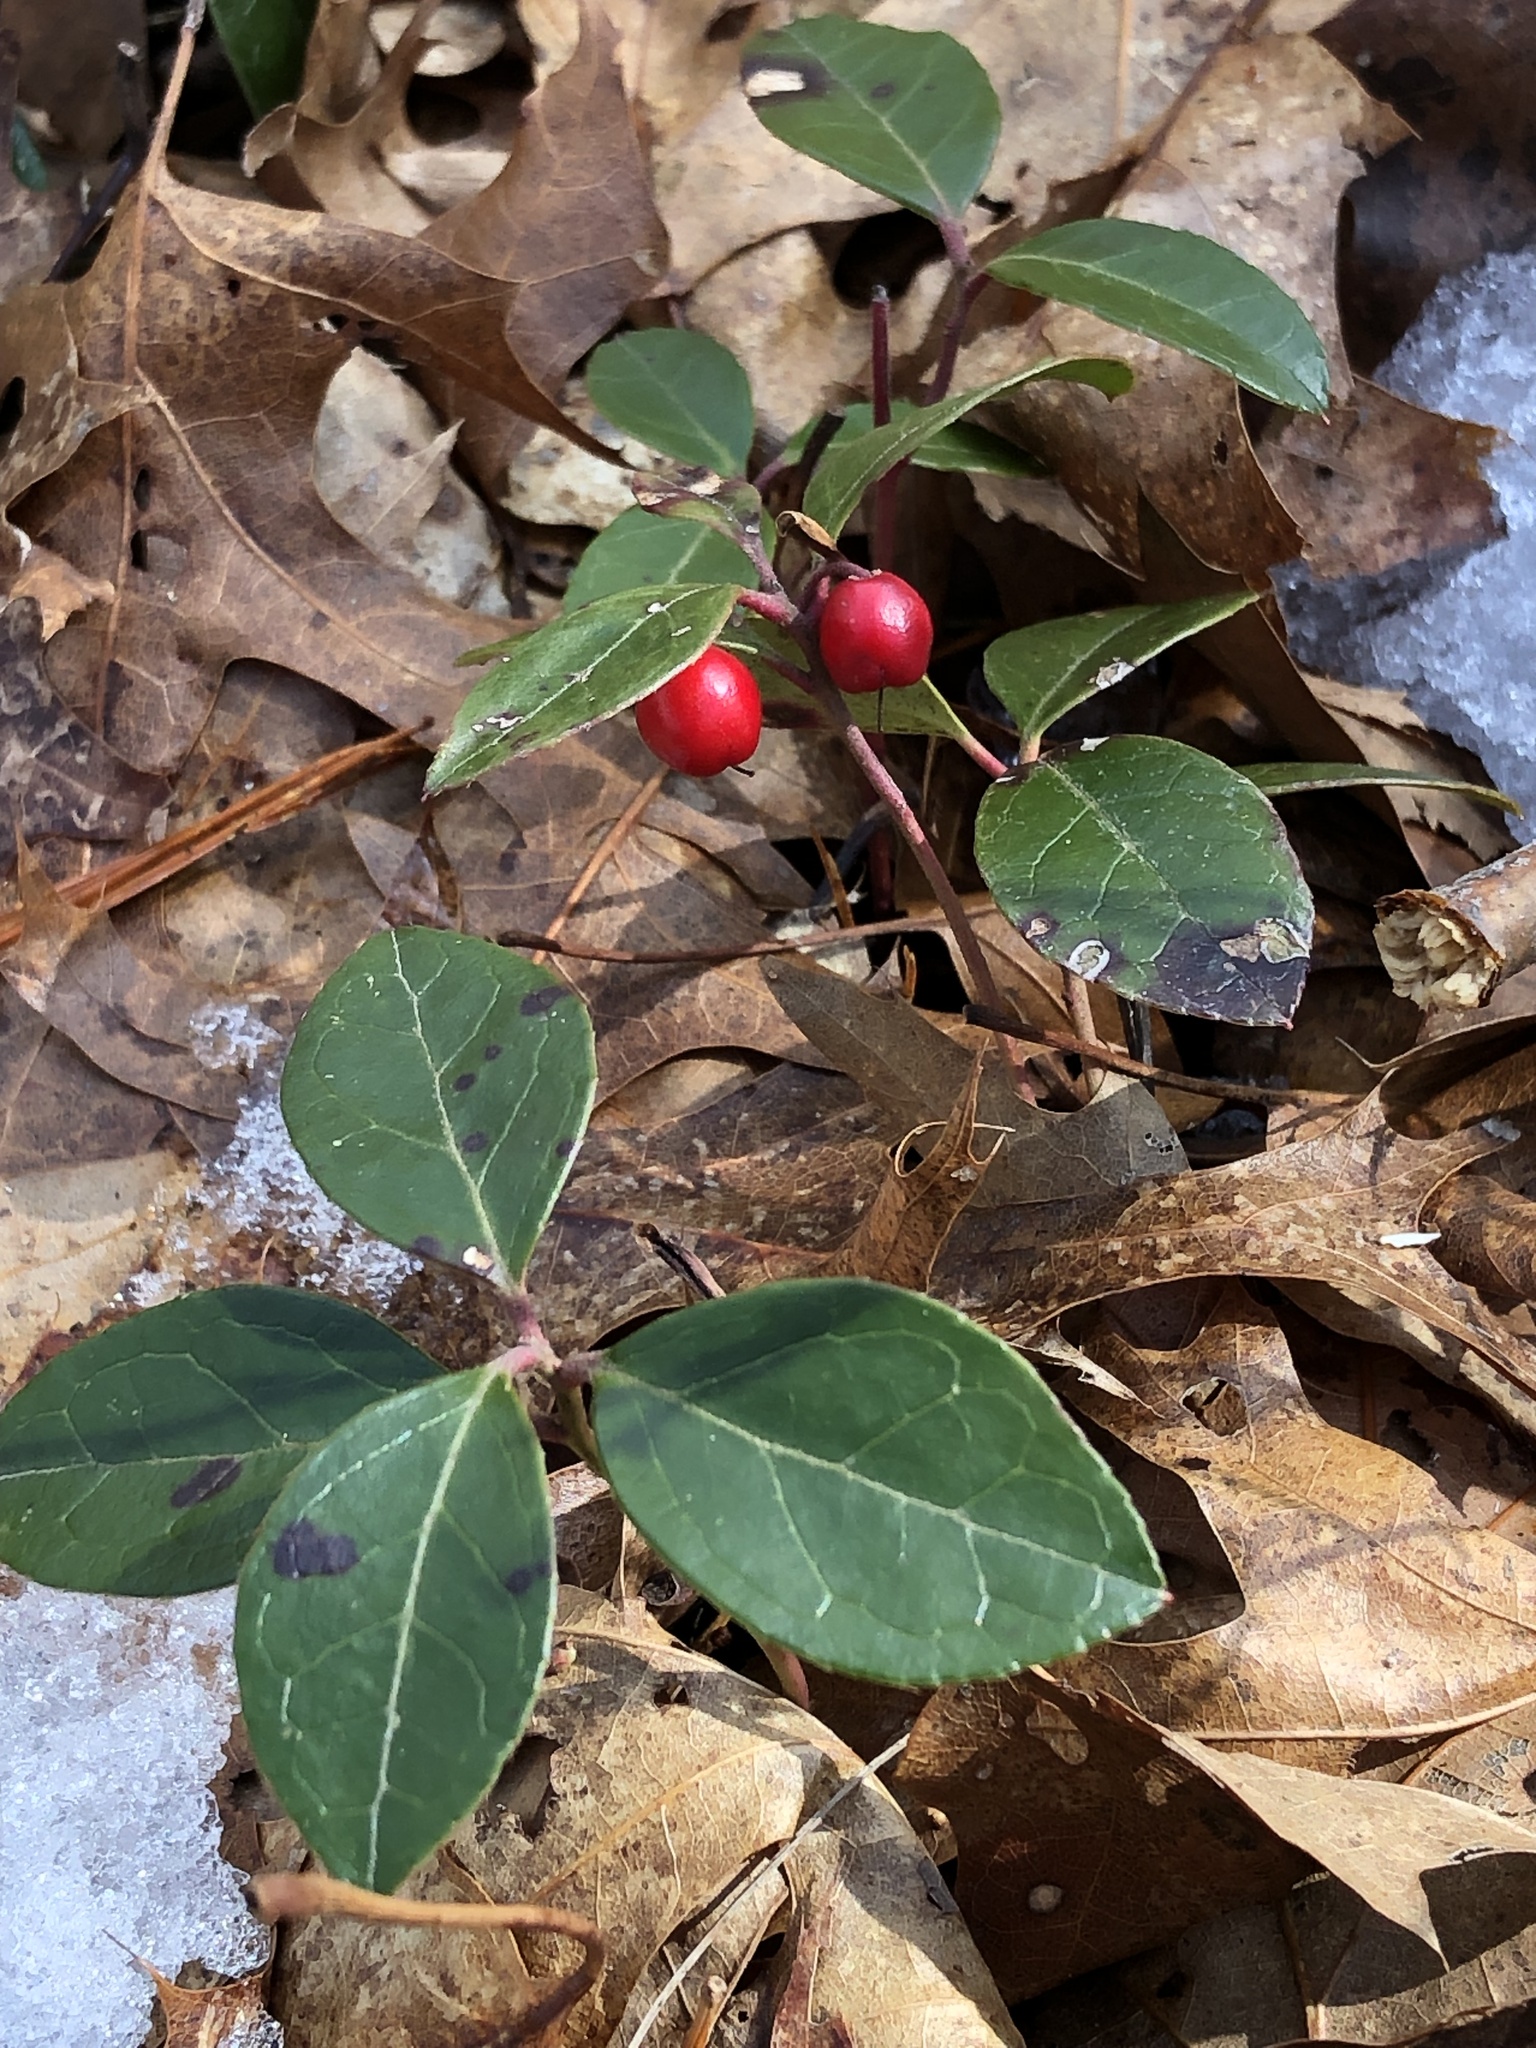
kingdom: Plantae
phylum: Tracheophyta
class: Magnoliopsida
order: Ericales
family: Ericaceae
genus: Gaultheria
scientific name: Gaultheria procumbens
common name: Checkerberry
